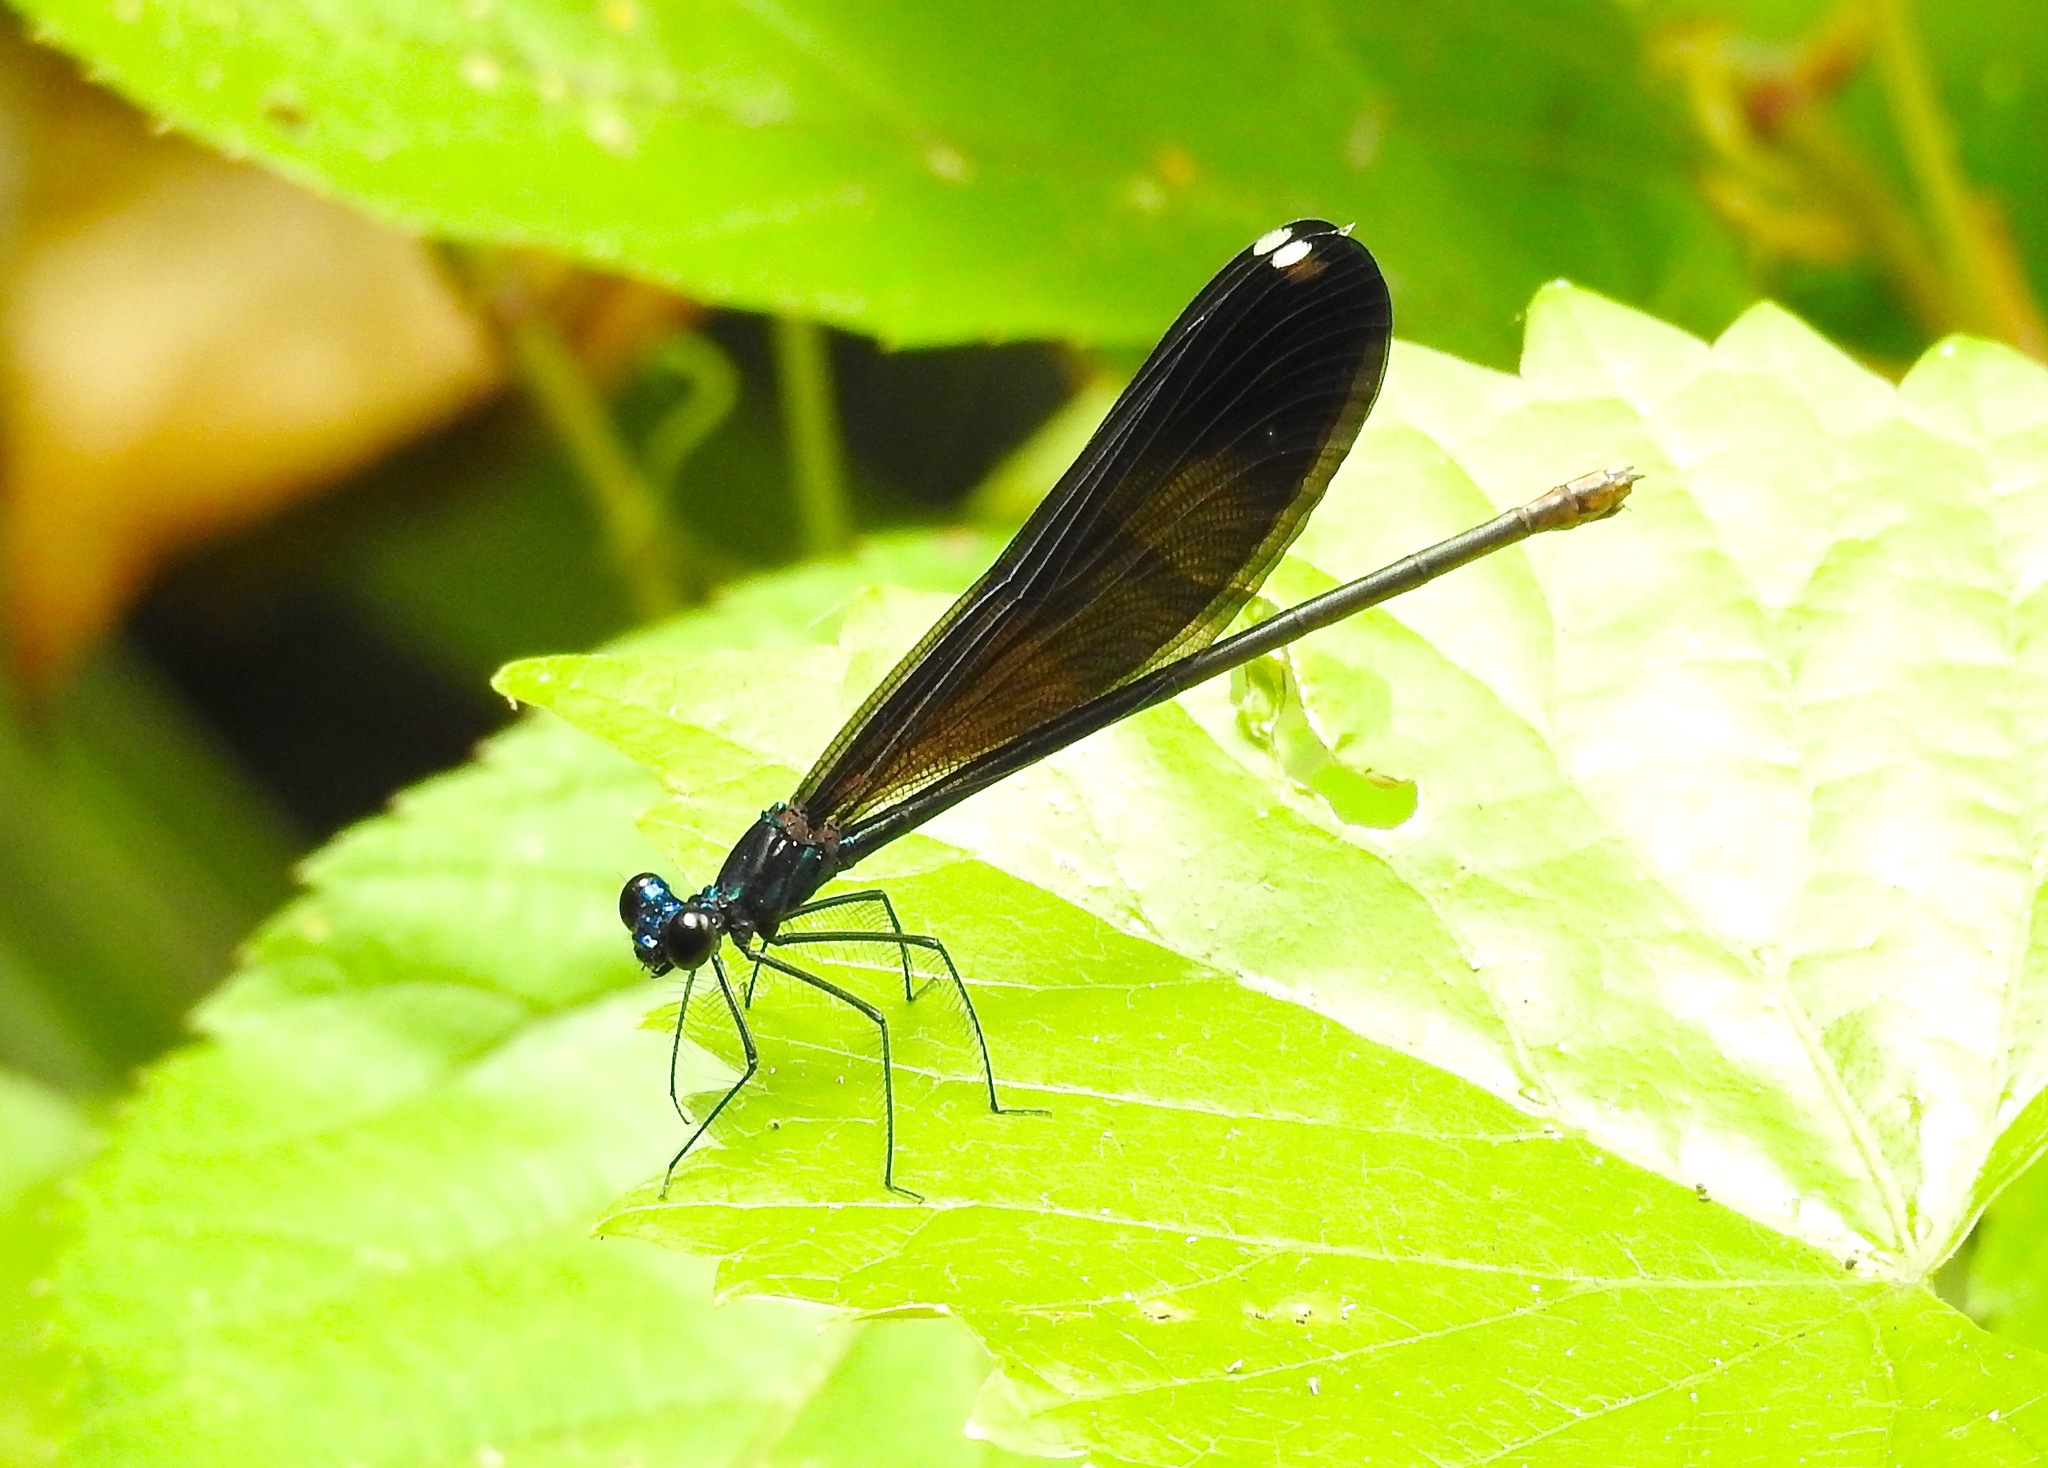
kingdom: Animalia
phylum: Arthropoda
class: Insecta
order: Odonata
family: Calopterygidae
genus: Calopteryx
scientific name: Calopteryx maculata
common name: Ebony jewelwing
